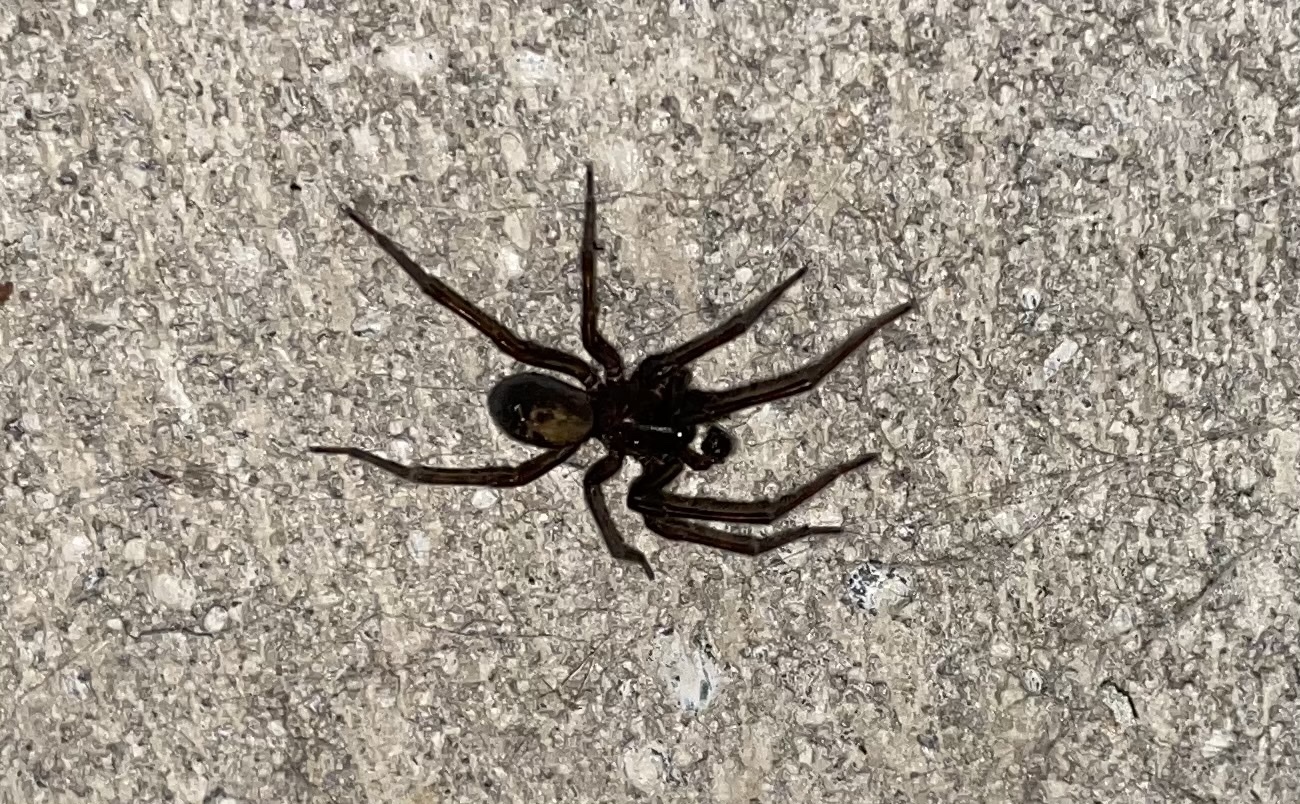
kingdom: Animalia
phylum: Arthropoda
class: Arachnida
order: Araneae
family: Amaurobiidae
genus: Amaurobius
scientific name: Amaurobius ferox
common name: Black laceweaver
